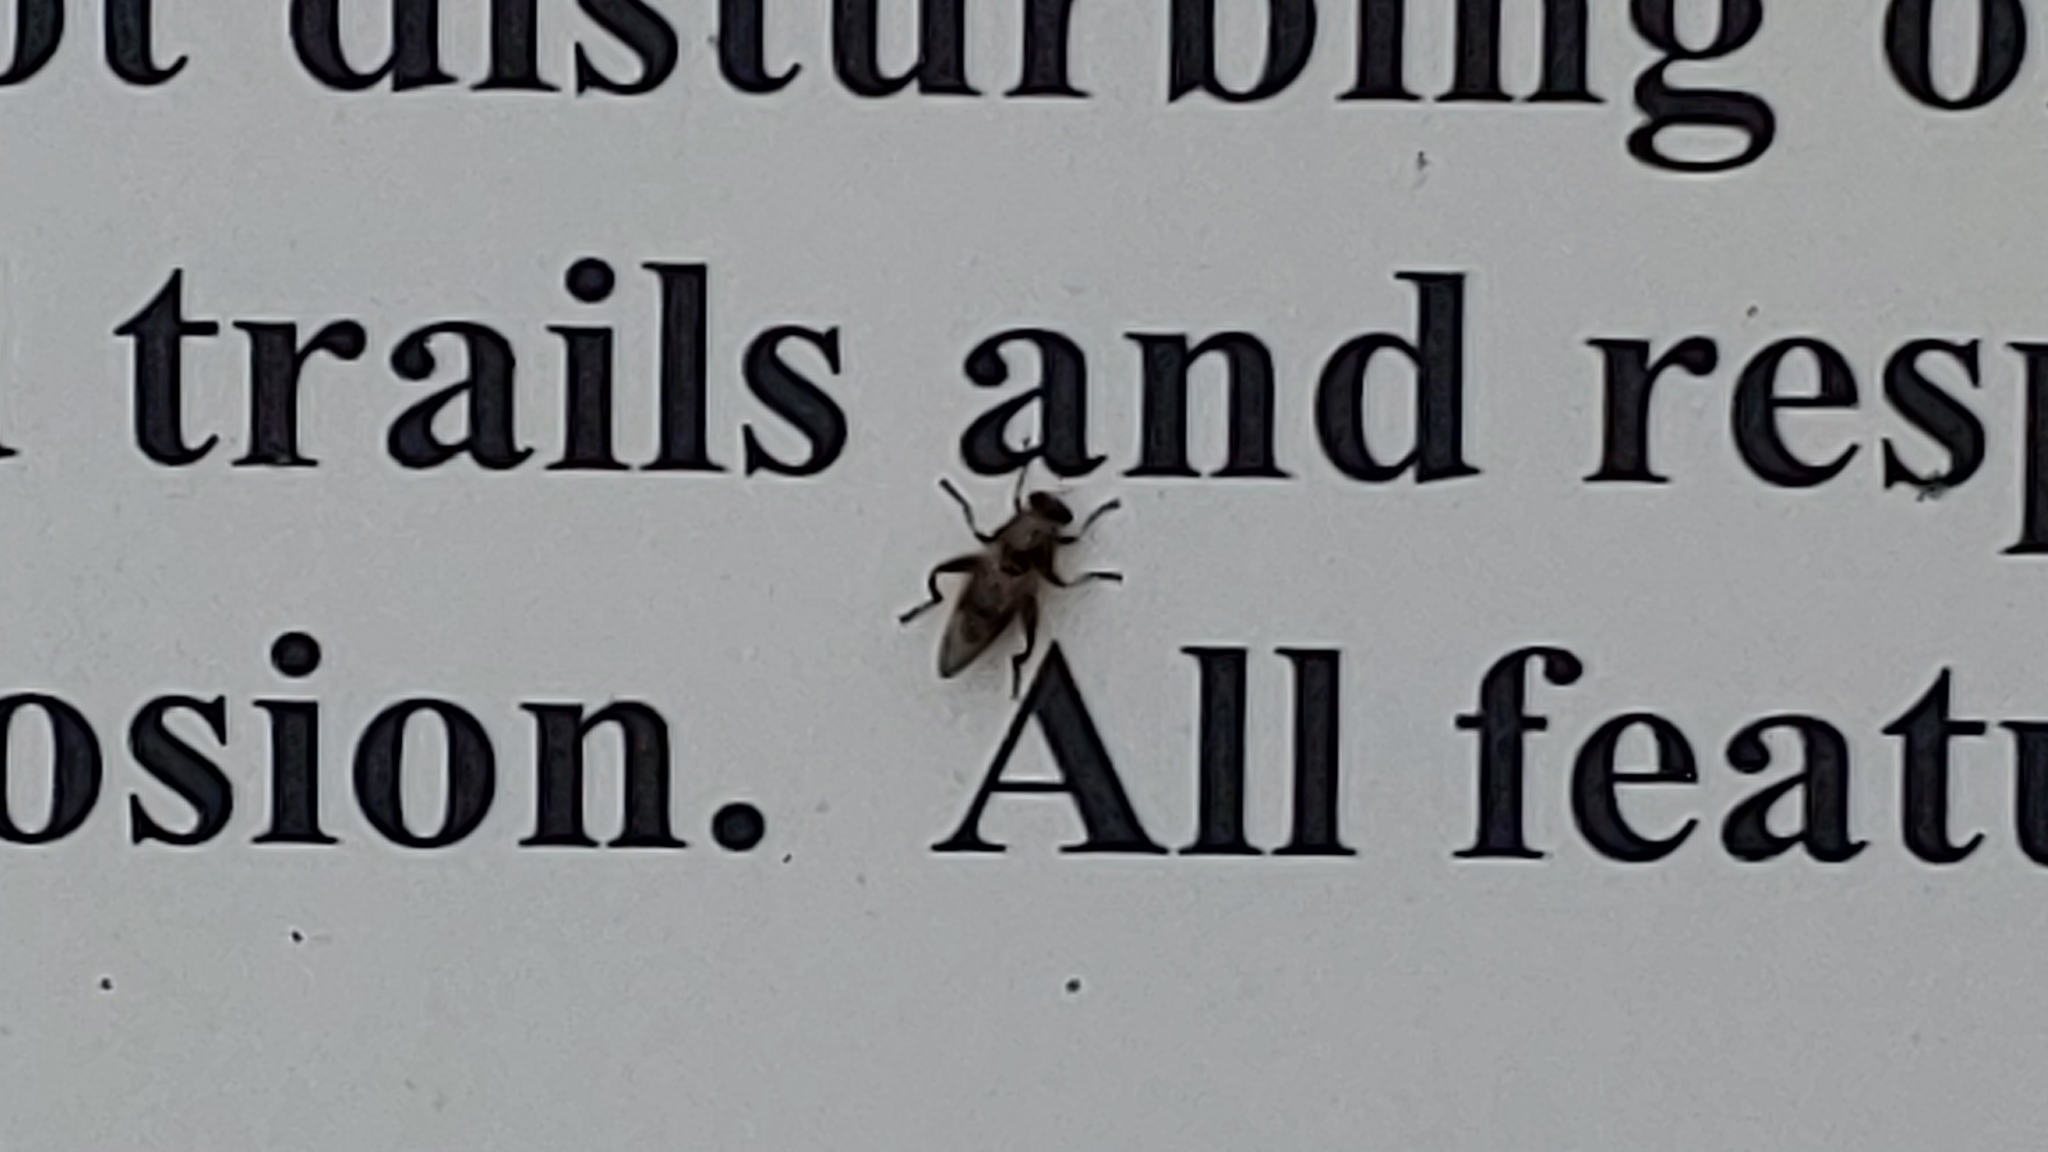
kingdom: Animalia
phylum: Arthropoda
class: Insecta
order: Diptera
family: Syrphidae
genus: Brachypalpus
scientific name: Brachypalpus oarus
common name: Eastern catkin fly
